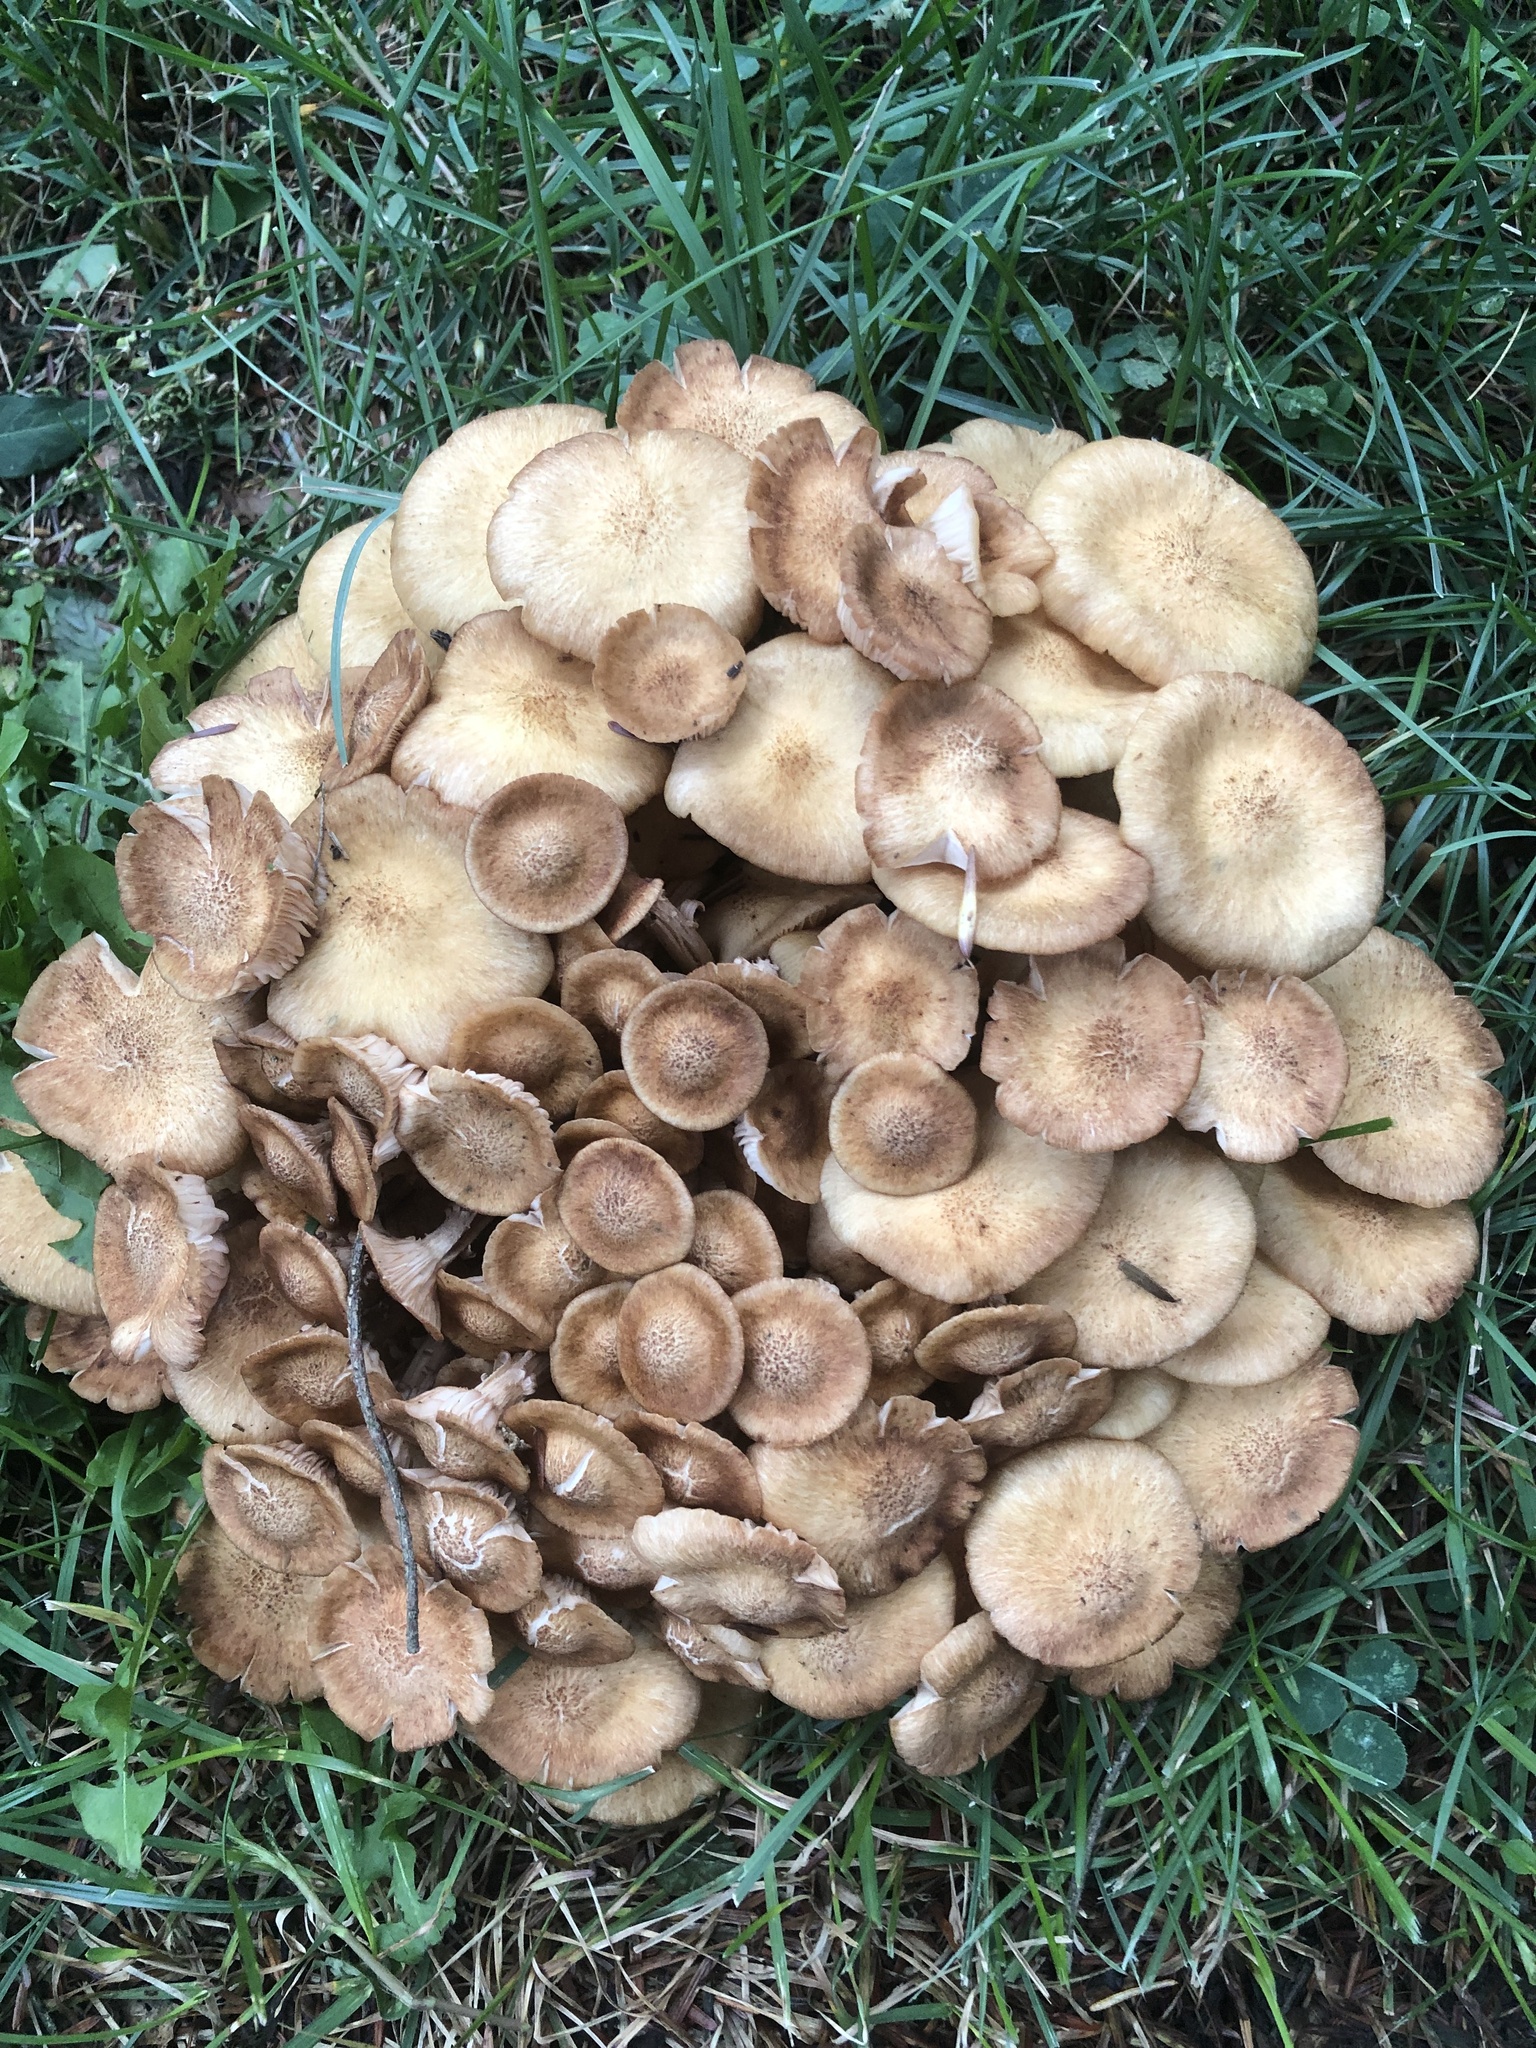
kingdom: Fungi
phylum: Basidiomycota
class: Agaricomycetes
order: Agaricales
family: Physalacriaceae
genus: Desarmillaria
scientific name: Desarmillaria caespitosa
